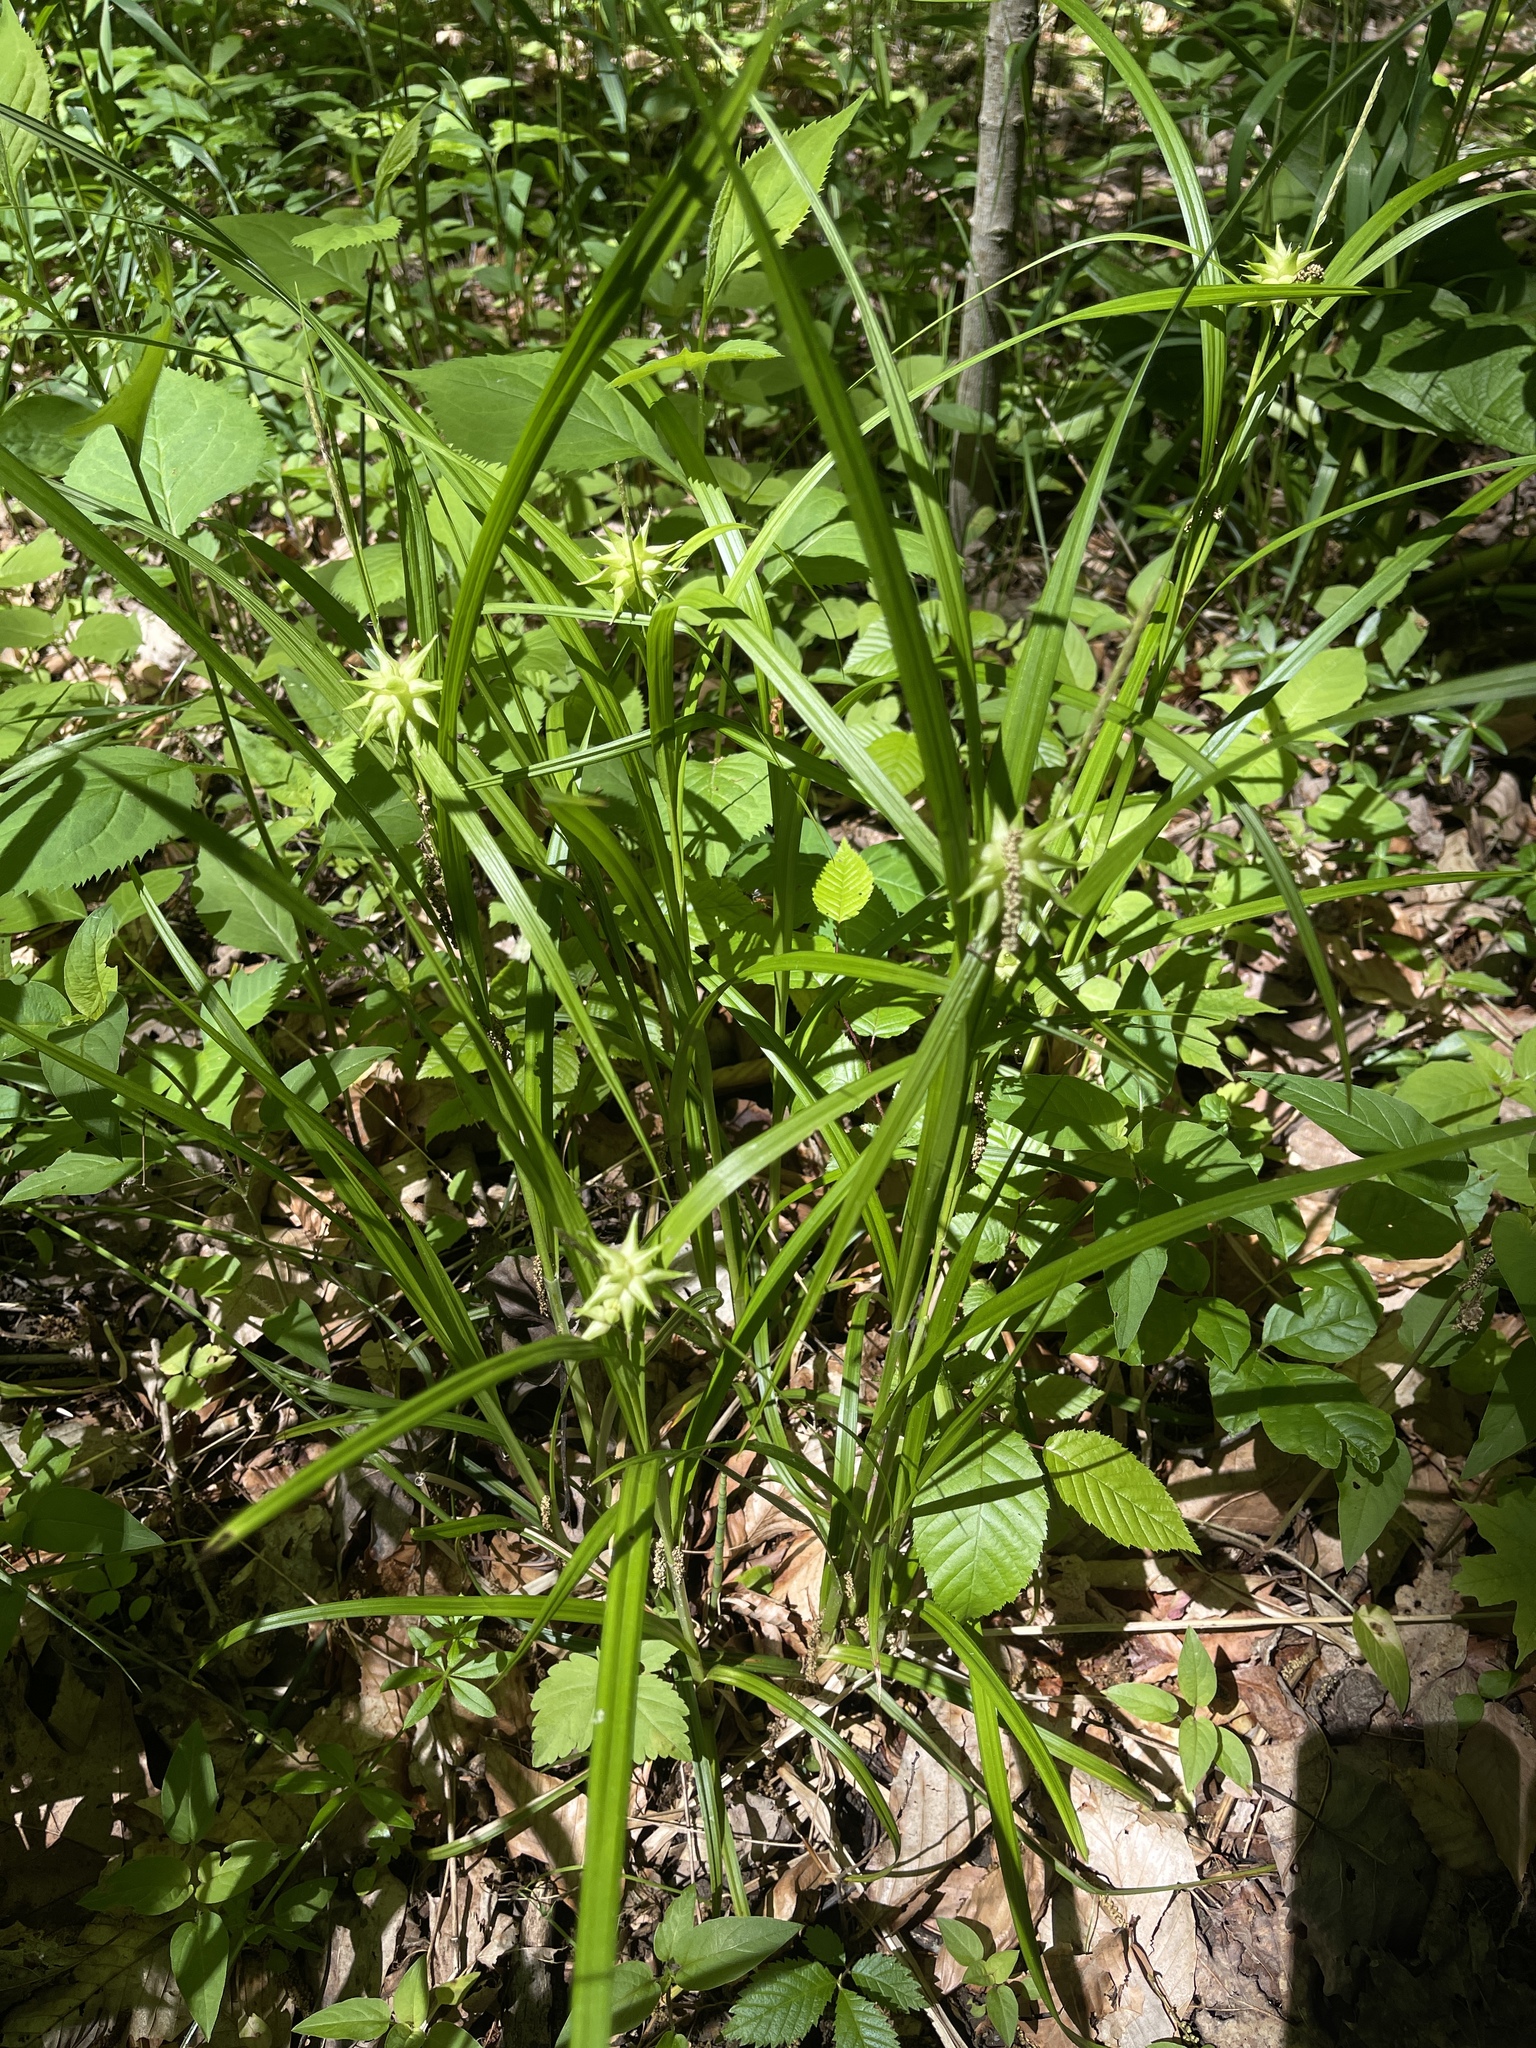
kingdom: Plantae
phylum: Tracheophyta
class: Liliopsida
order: Poales
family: Cyperaceae
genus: Carex
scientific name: Carex grayi
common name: Asa gray's sedge
